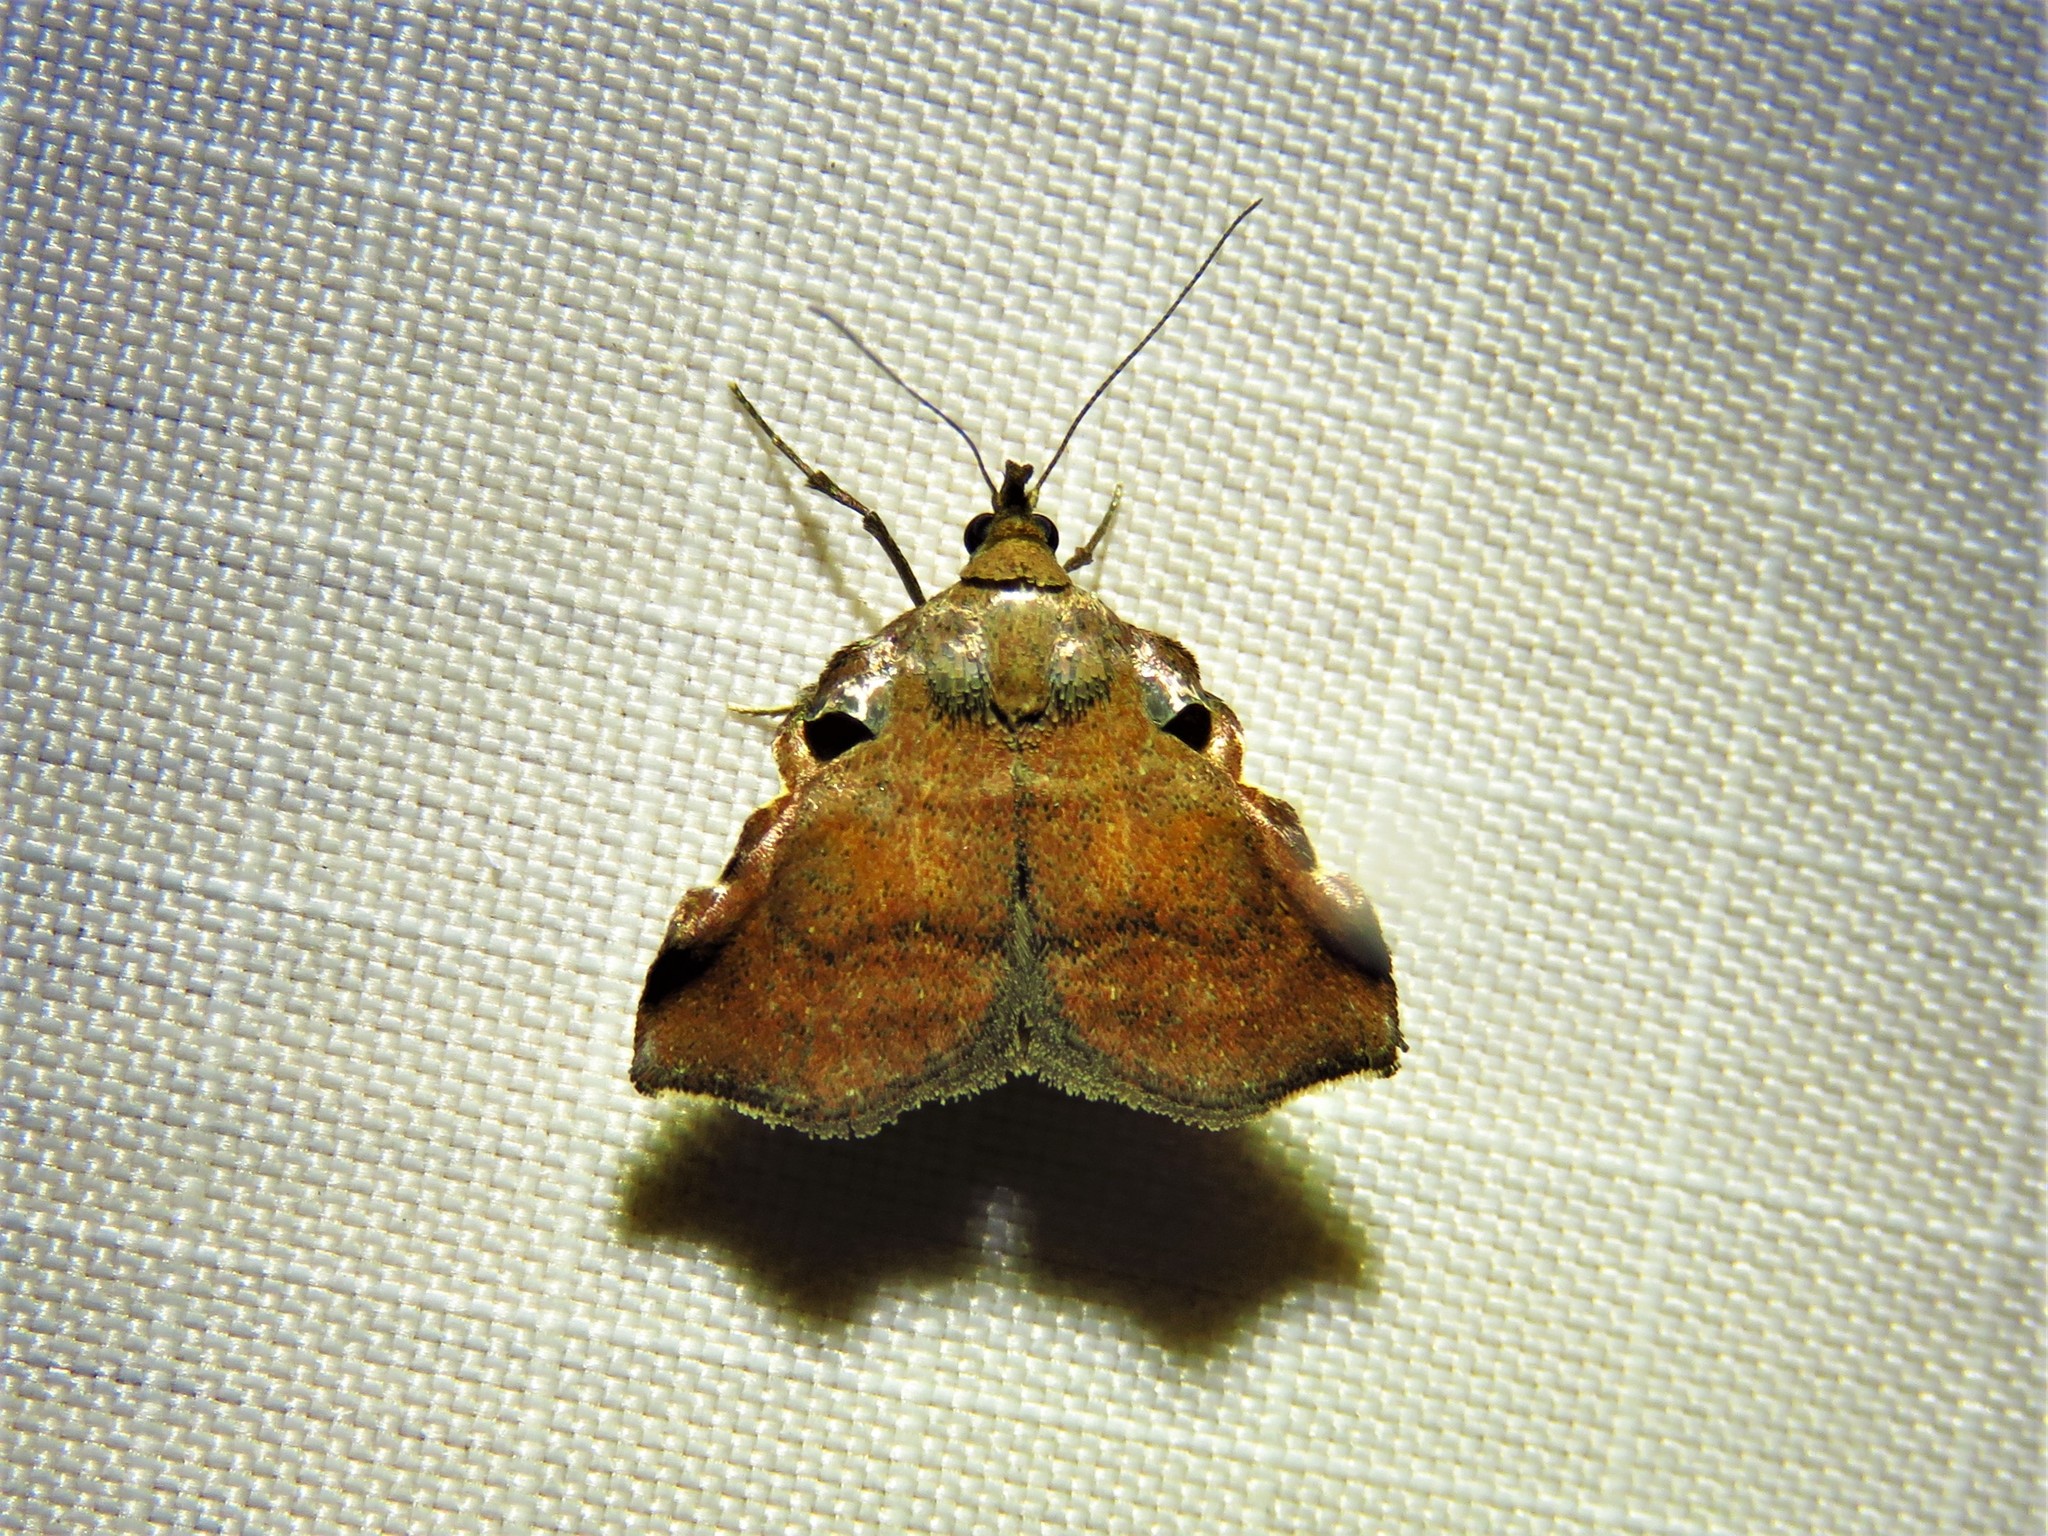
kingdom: Animalia
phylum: Arthropoda
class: Insecta
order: Lepidoptera
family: Pyralidae
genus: Salobrena
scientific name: Salobrena sincera
